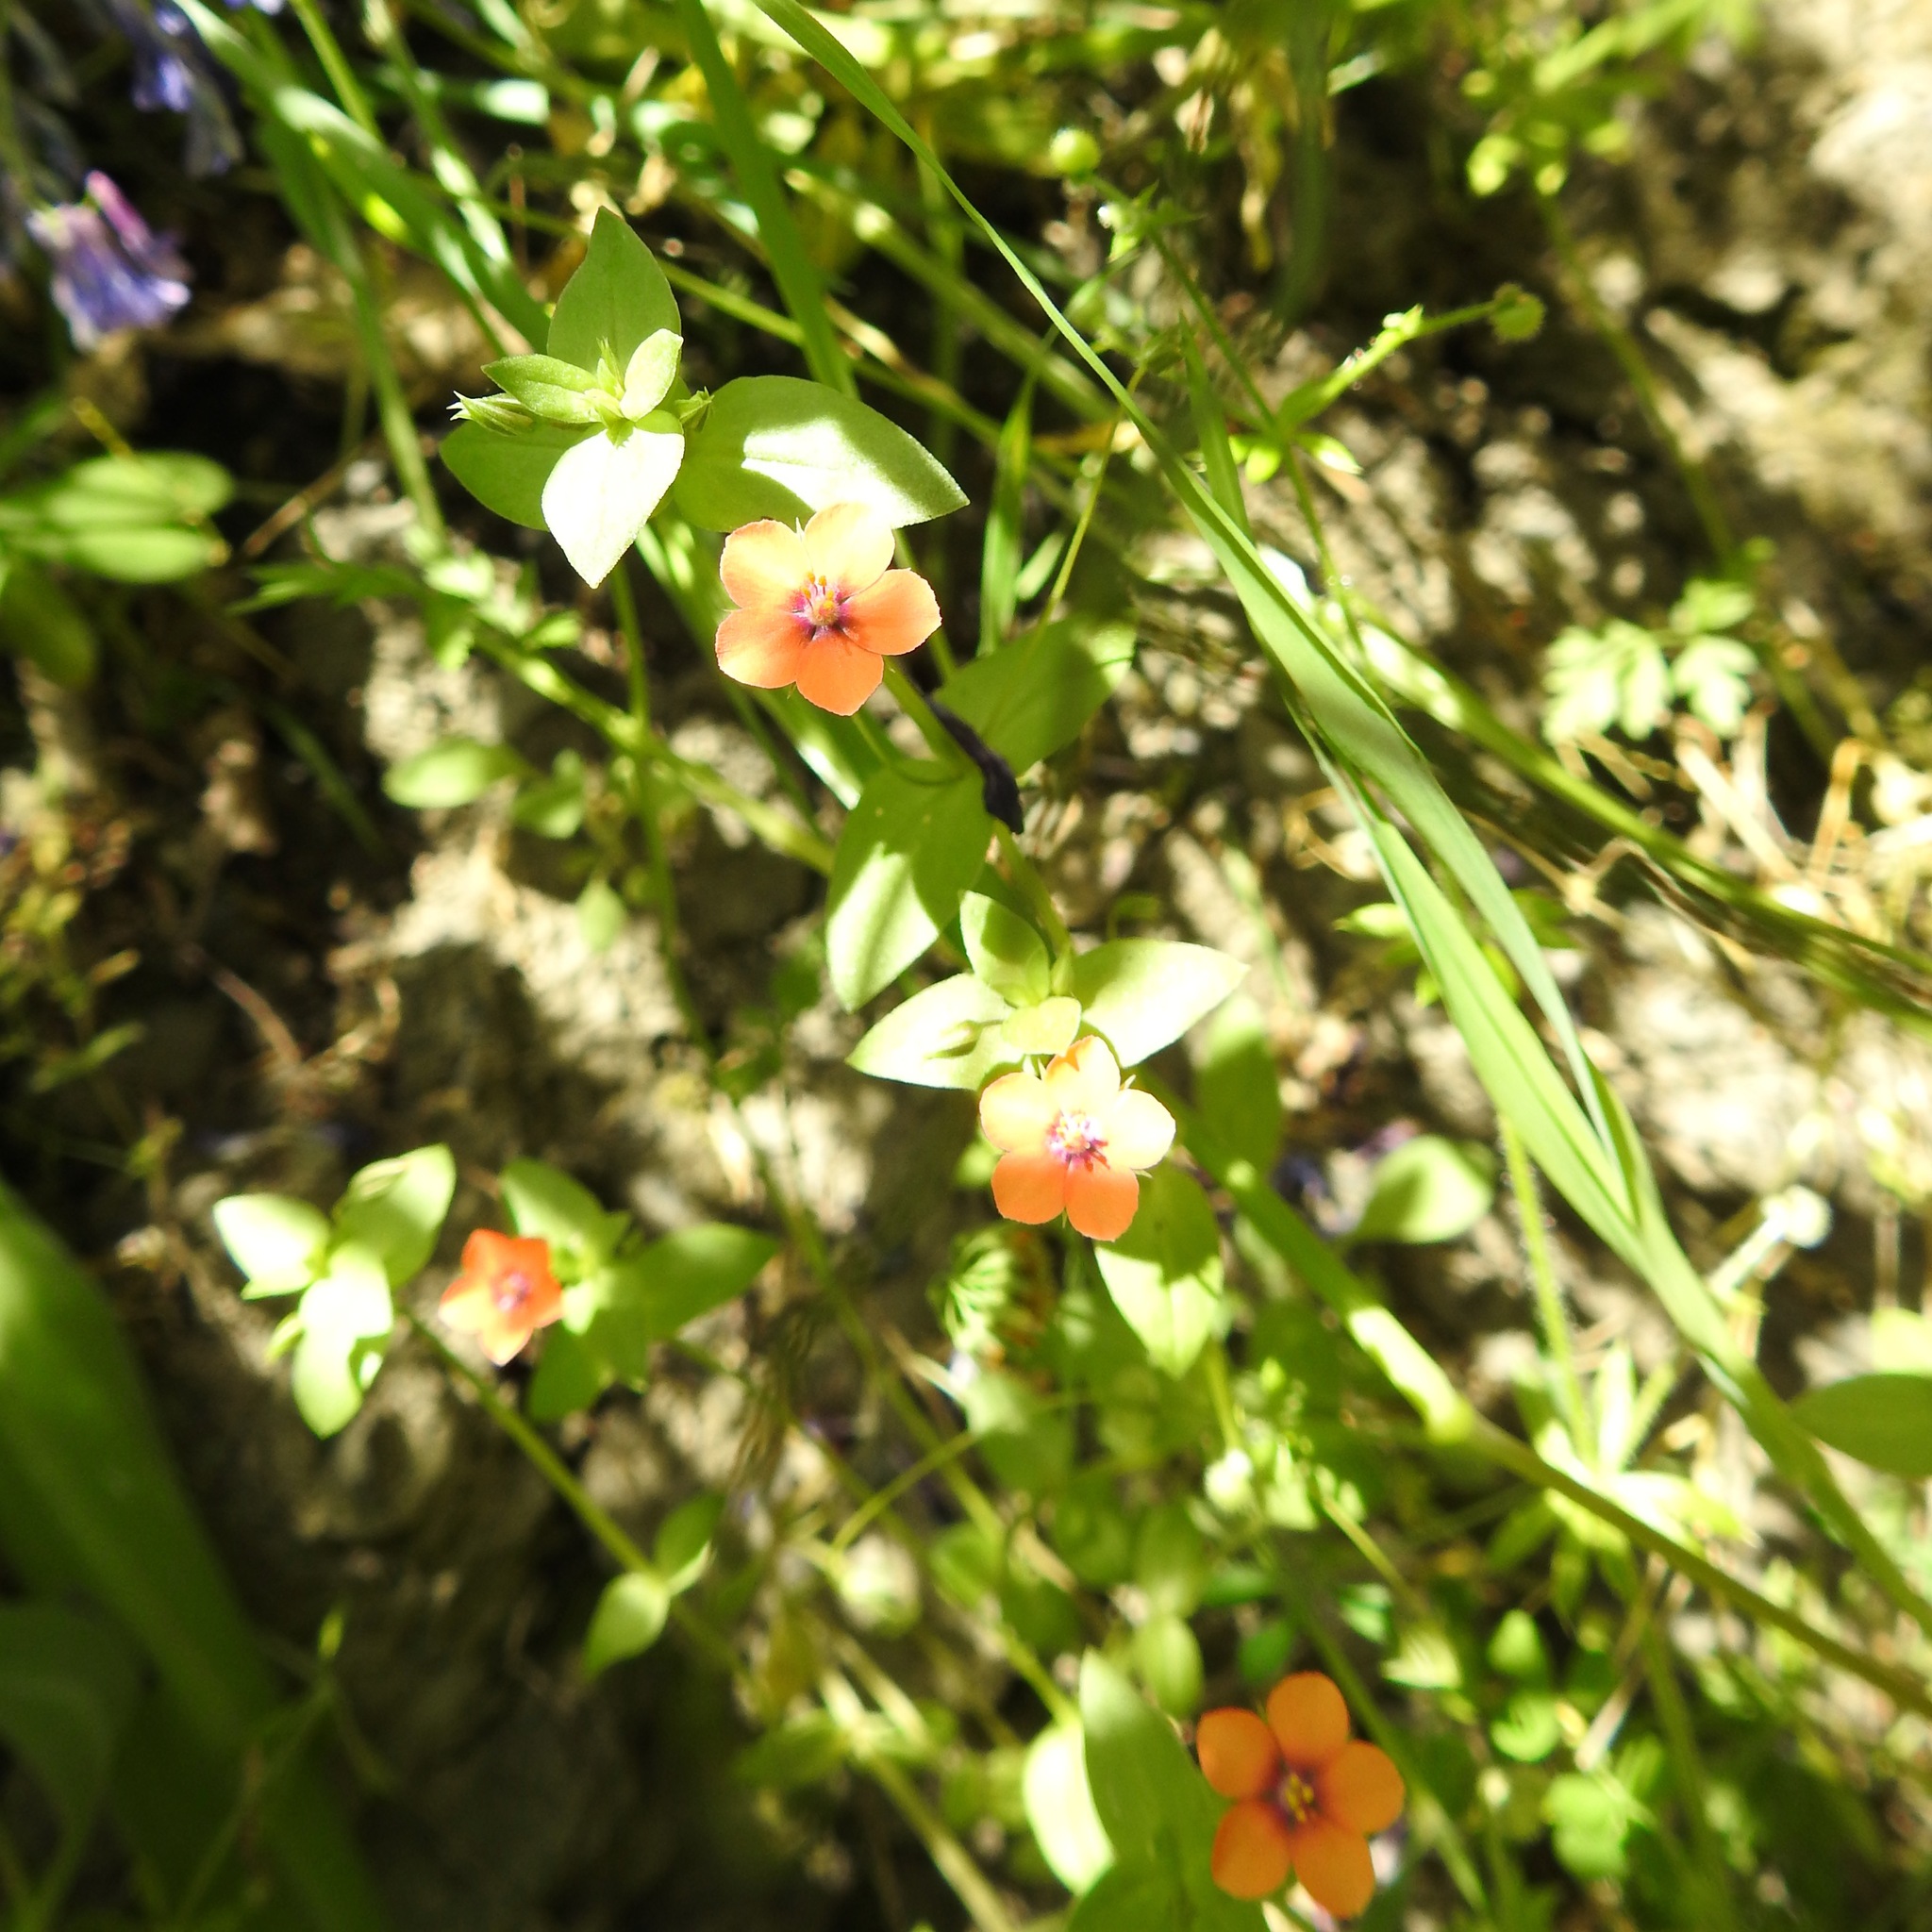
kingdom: Plantae
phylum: Tracheophyta
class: Magnoliopsida
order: Ericales
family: Primulaceae
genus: Lysimachia
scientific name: Lysimachia arvensis
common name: Scarlet pimpernel
